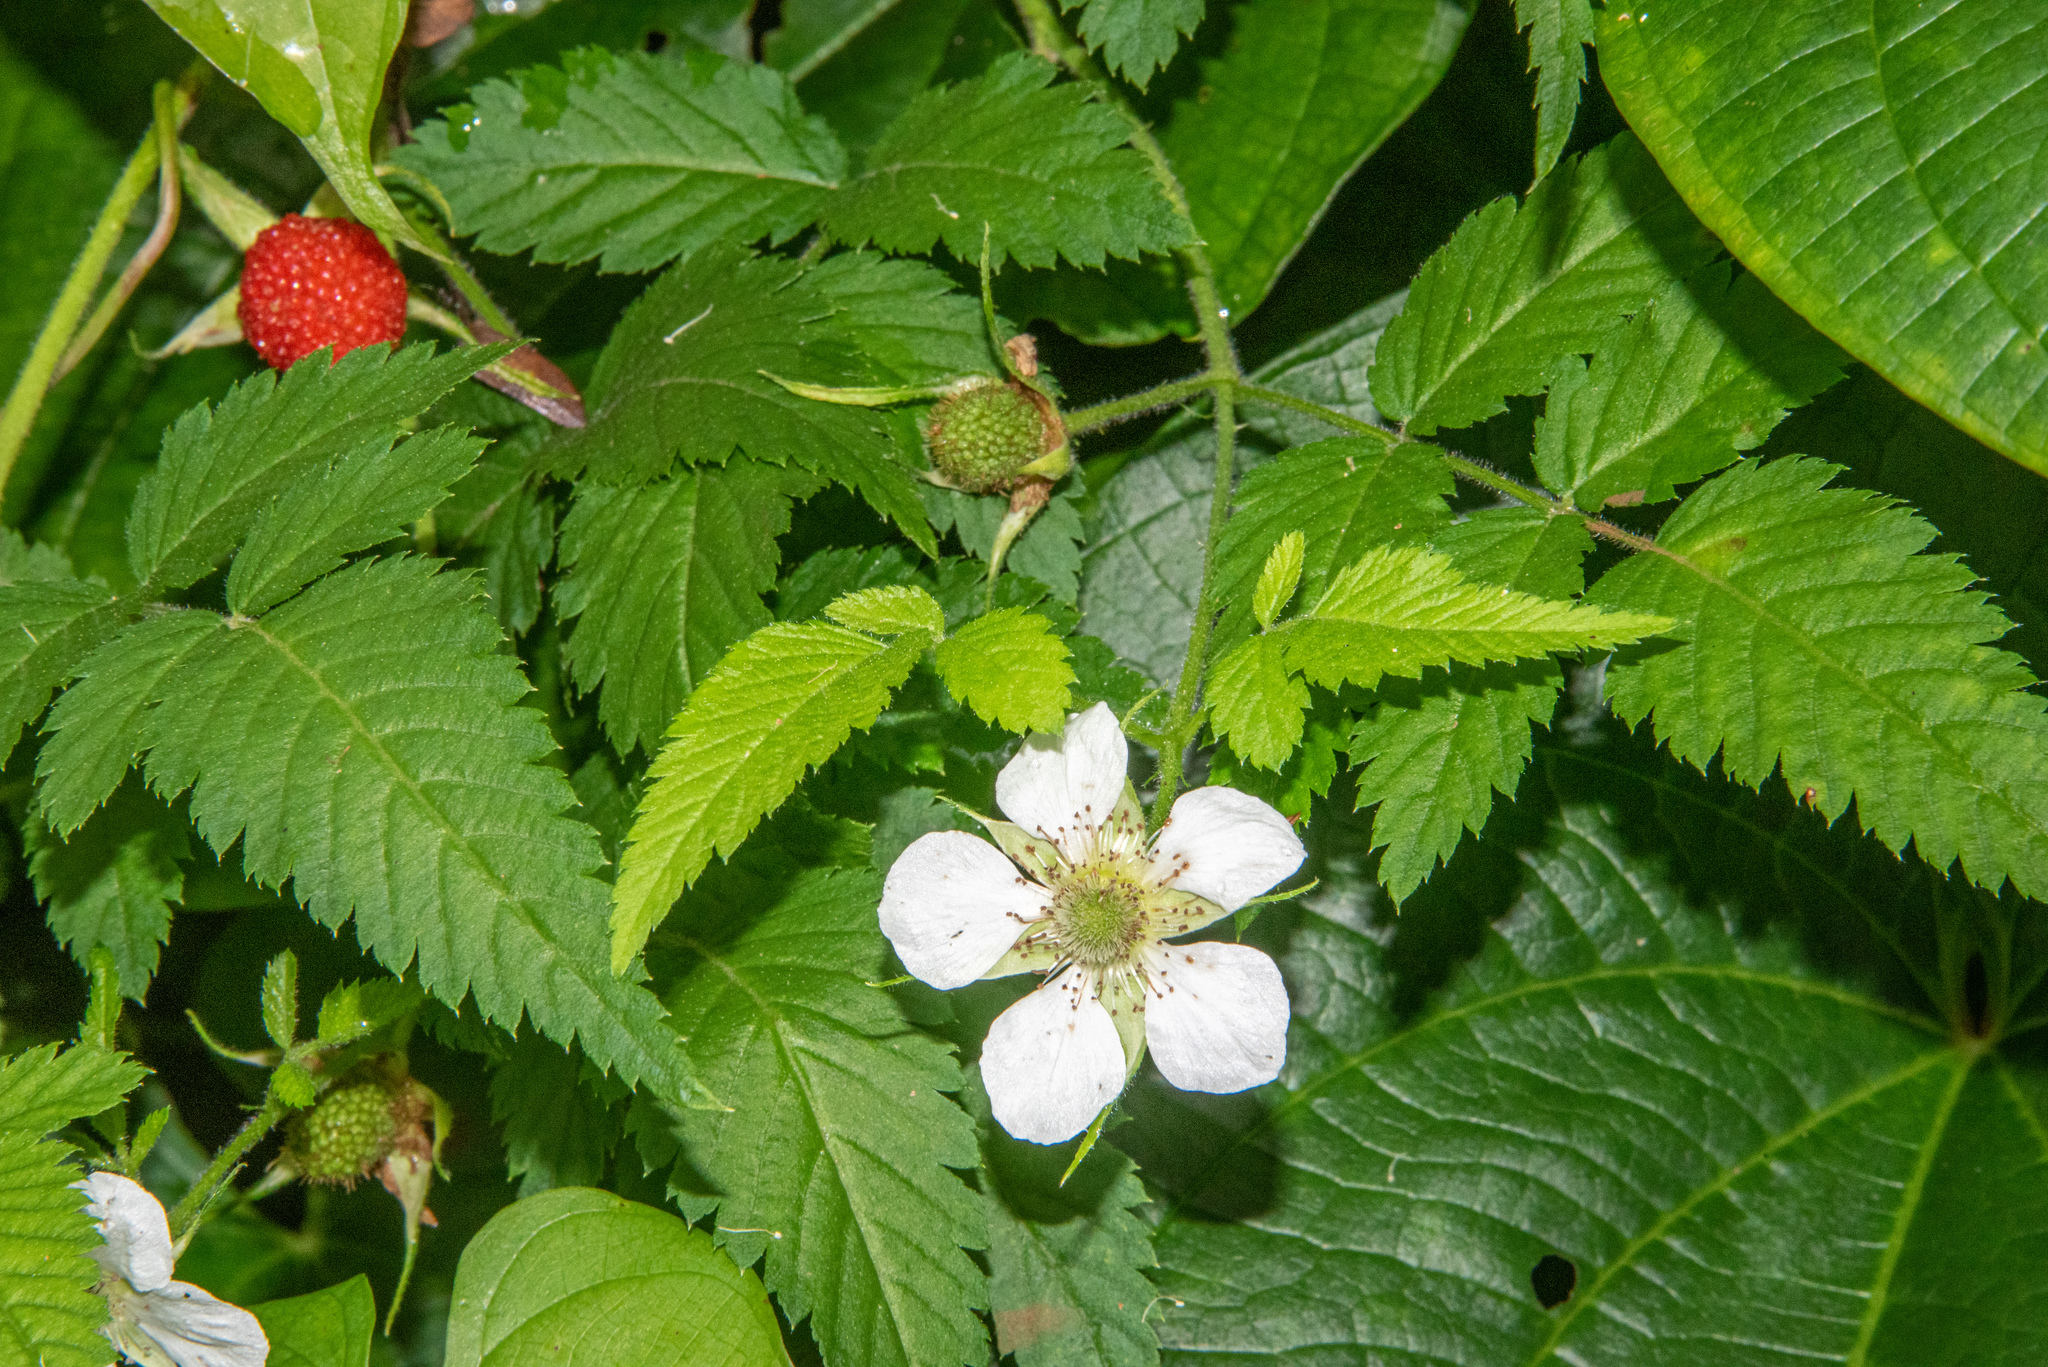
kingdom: Plantae
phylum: Tracheophyta
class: Magnoliopsida
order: Rosales
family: Rosaceae
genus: Rubus
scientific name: Rubus rosifolius
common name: Roseleaf raspberry
